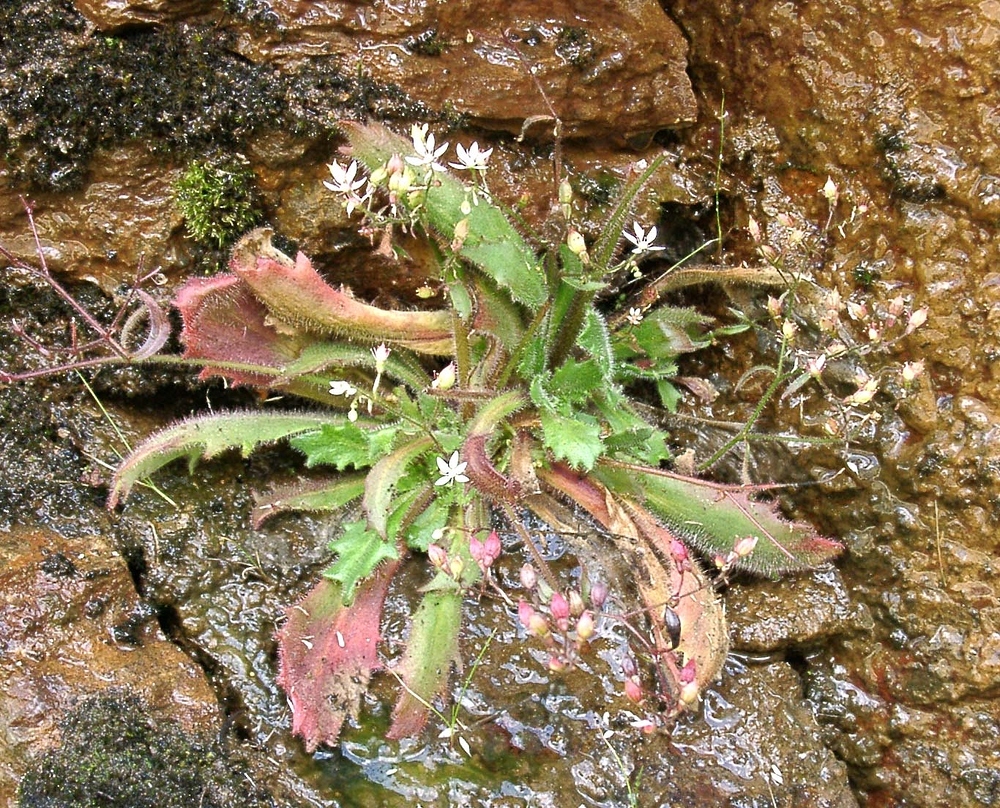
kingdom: Plantae
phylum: Tracheophyta
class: Magnoliopsida
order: Saxifragales
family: Saxifragaceae
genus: Micranthes
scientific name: Micranthes clusii
